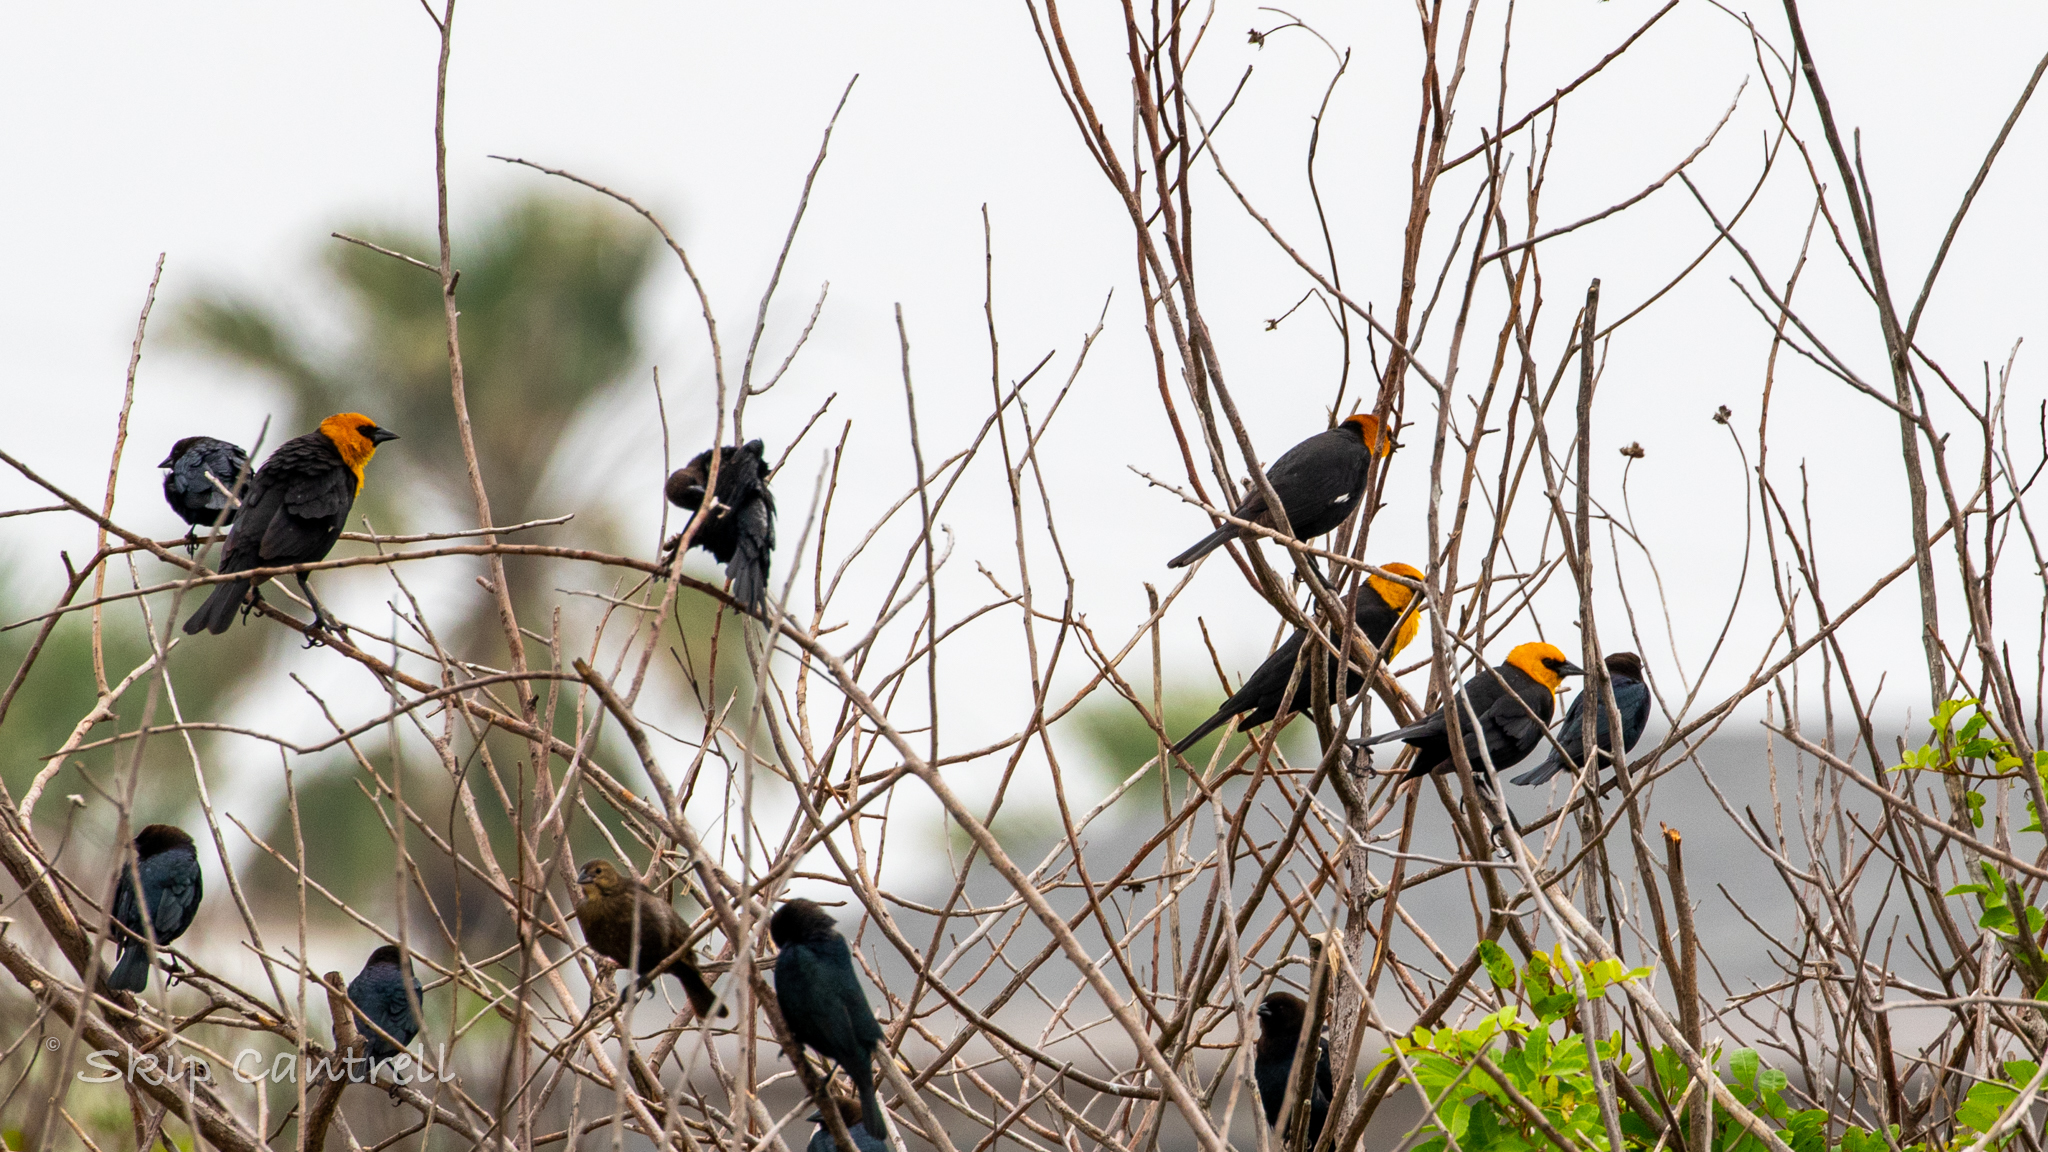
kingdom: Animalia
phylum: Chordata
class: Aves
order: Passeriformes
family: Icteridae
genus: Xanthocephalus
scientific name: Xanthocephalus xanthocephalus
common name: Yellow-headed blackbird
